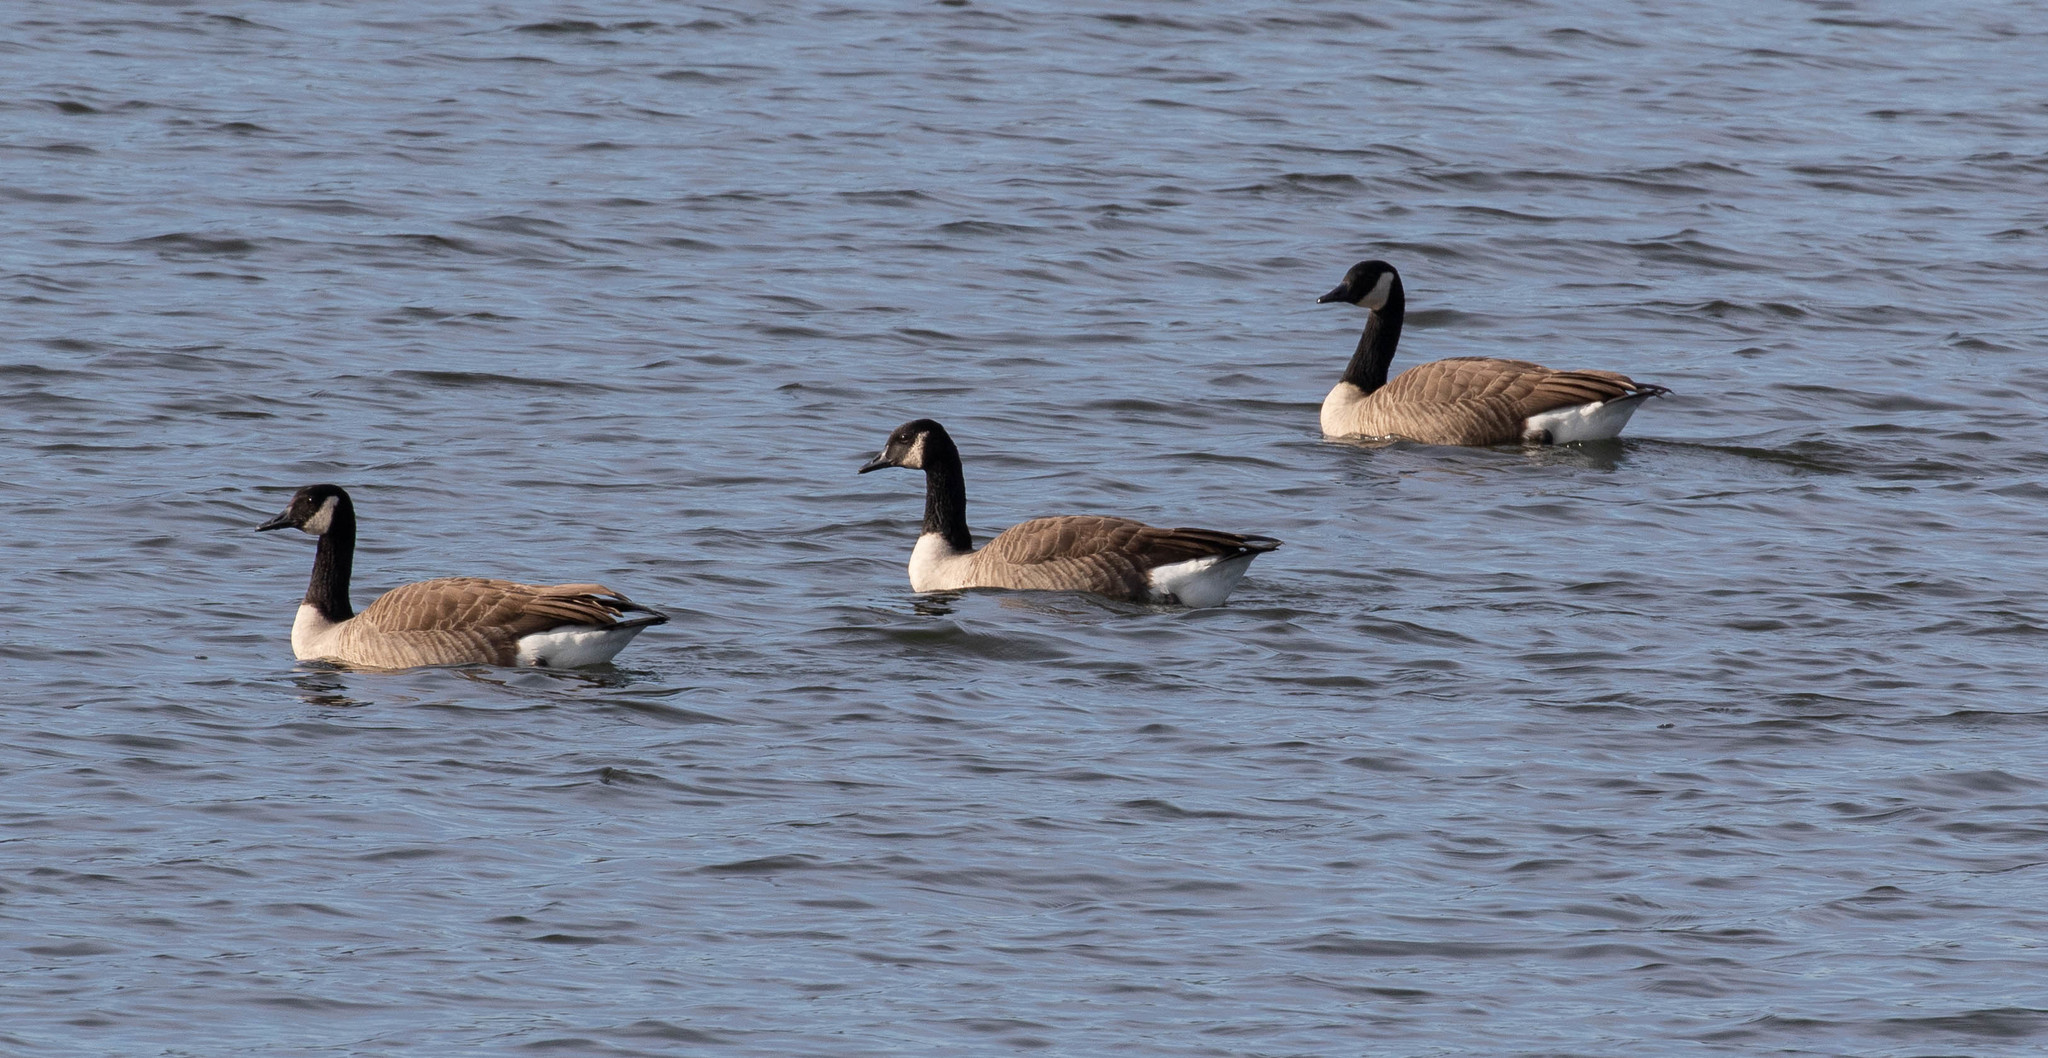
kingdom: Animalia
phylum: Chordata
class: Aves
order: Anseriformes
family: Anatidae
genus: Branta
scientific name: Branta canadensis
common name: Canada goose
